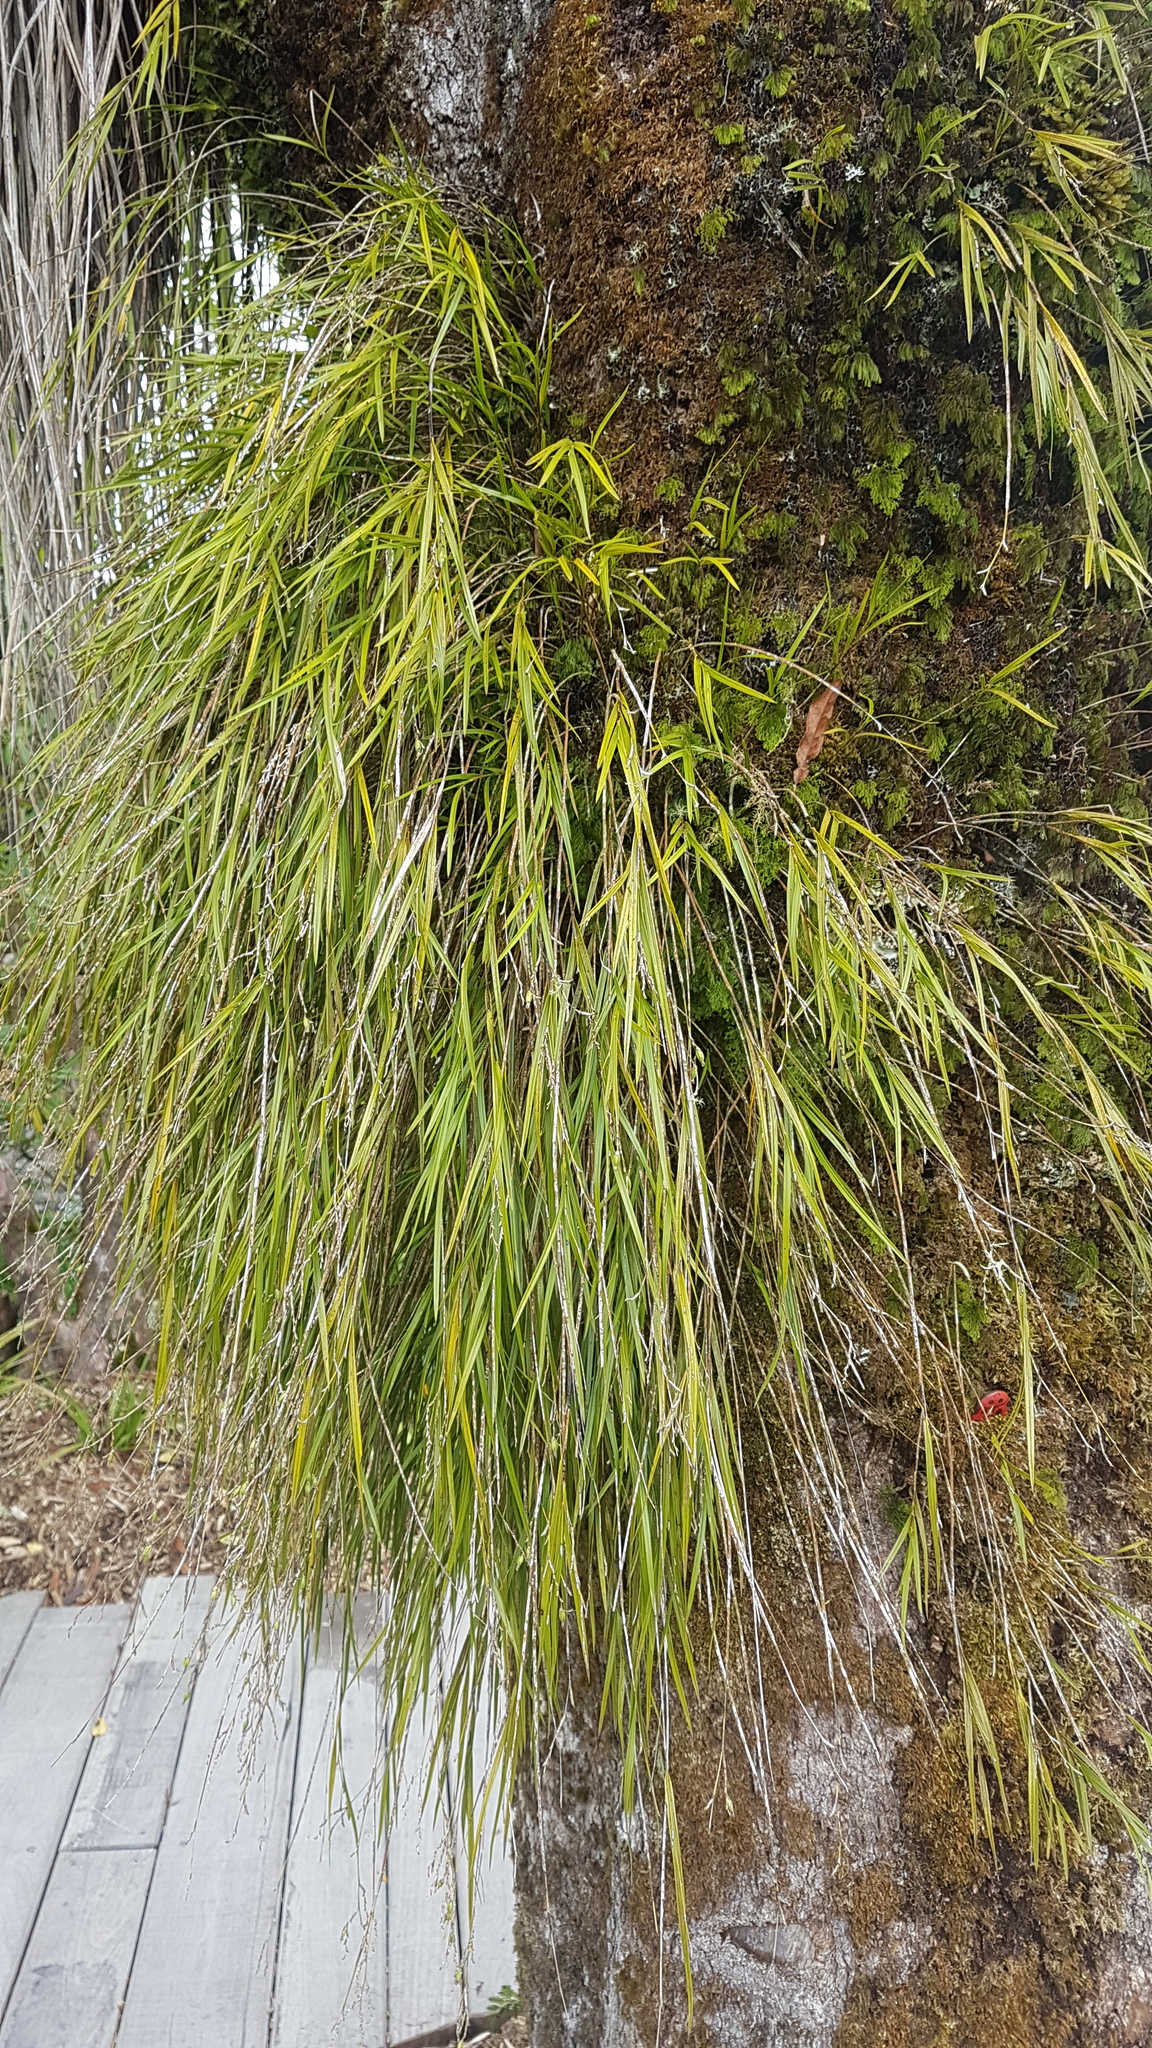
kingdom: Plantae
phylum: Tracheophyta
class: Liliopsida
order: Asparagales
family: Orchidaceae
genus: Earina
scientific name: Earina mucronata
